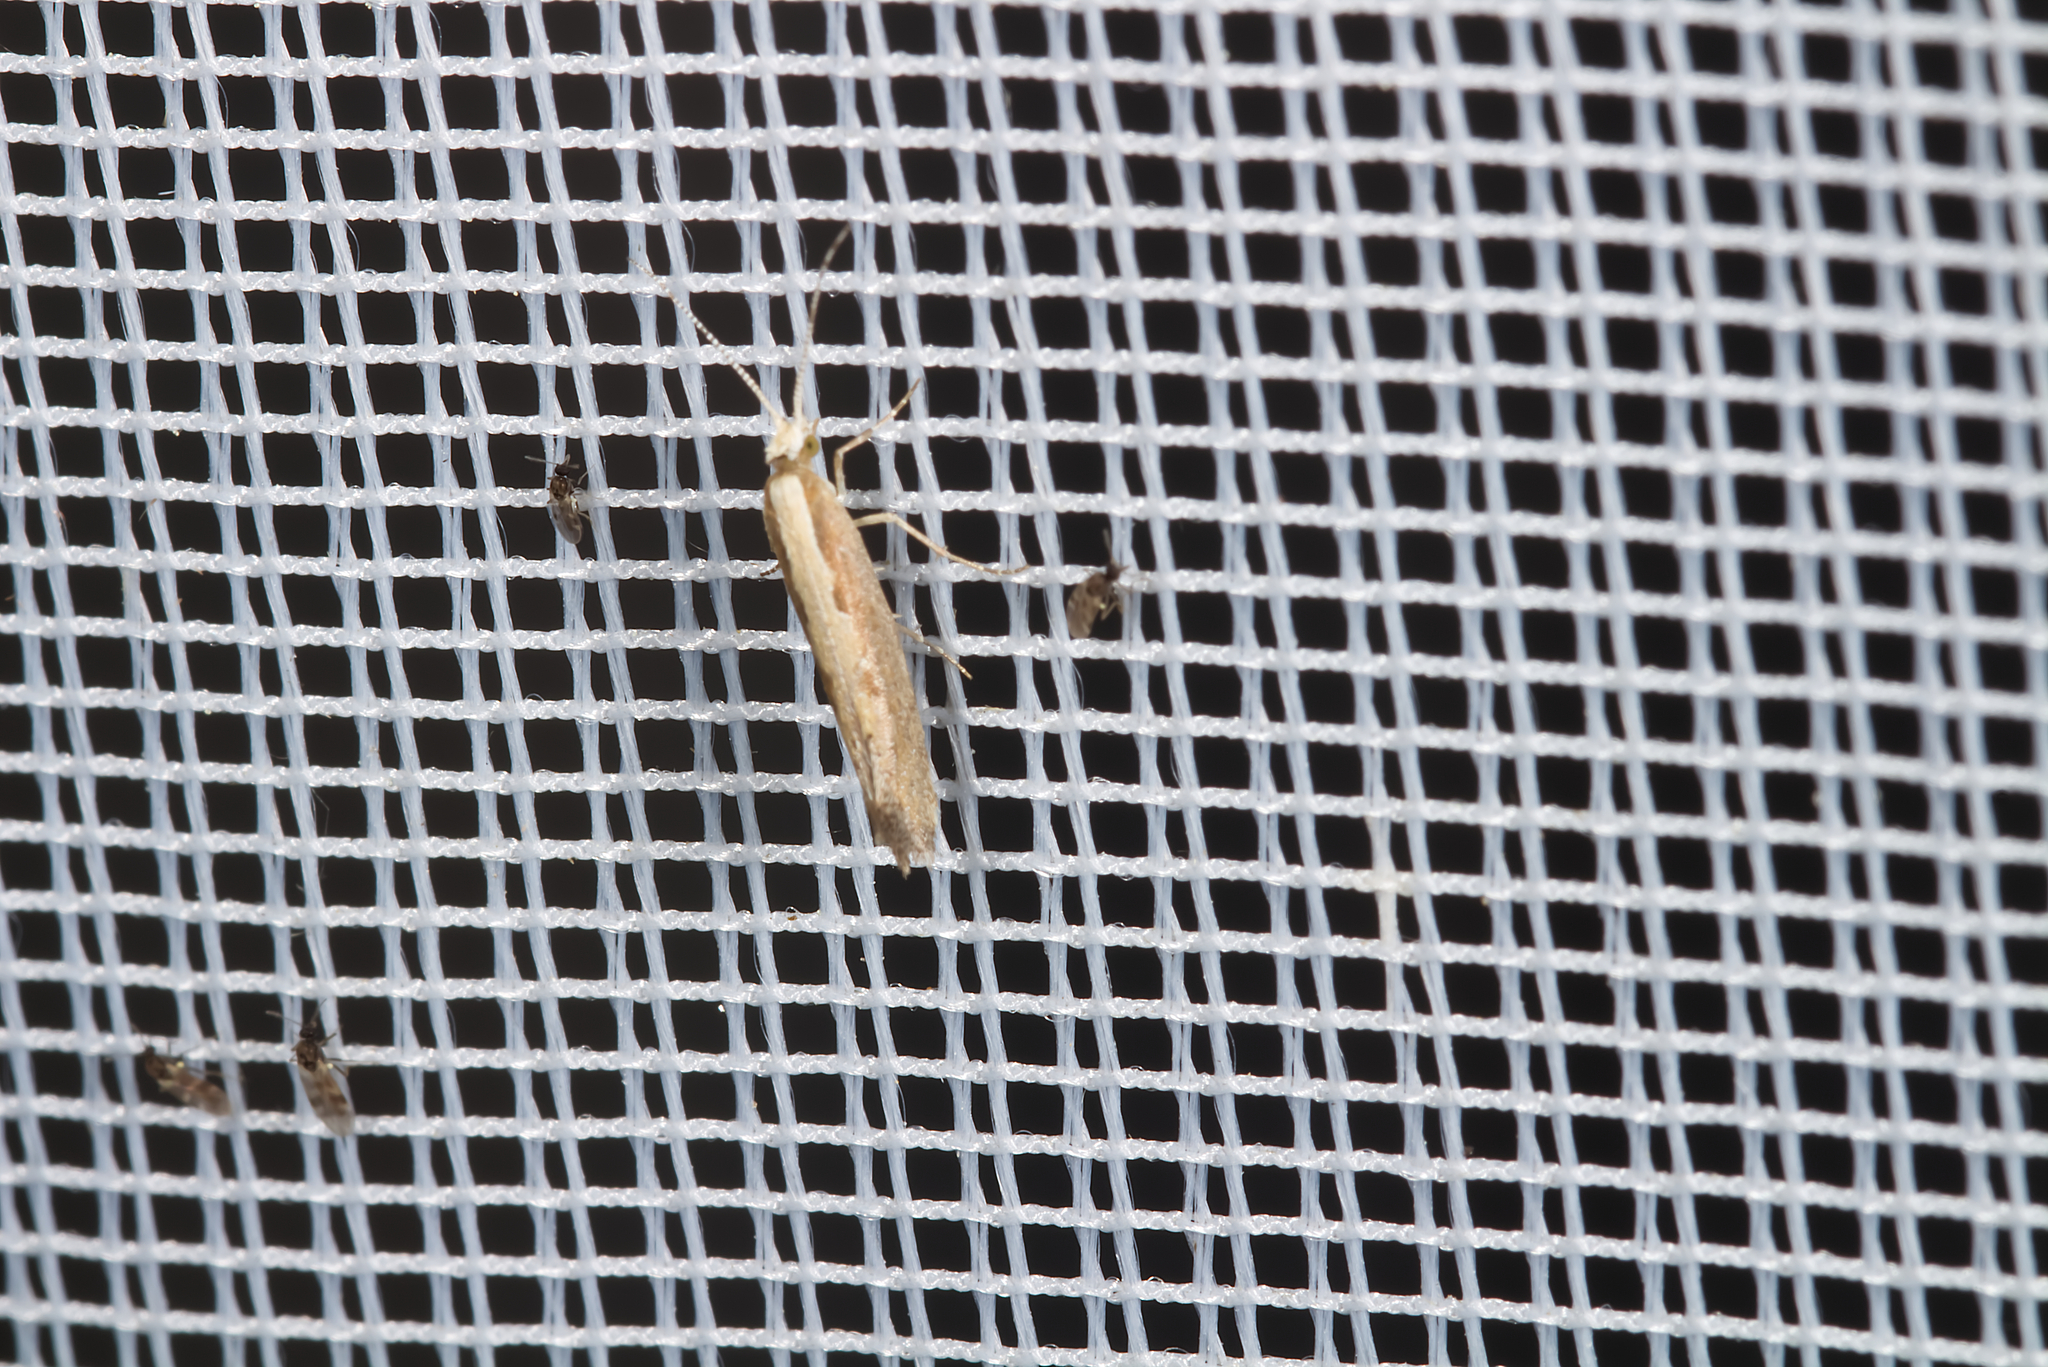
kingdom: Animalia
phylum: Arthropoda
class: Insecta
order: Lepidoptera
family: Plutellidae
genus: Plutella
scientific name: Plutella xylostella
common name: Diamond-back moth
